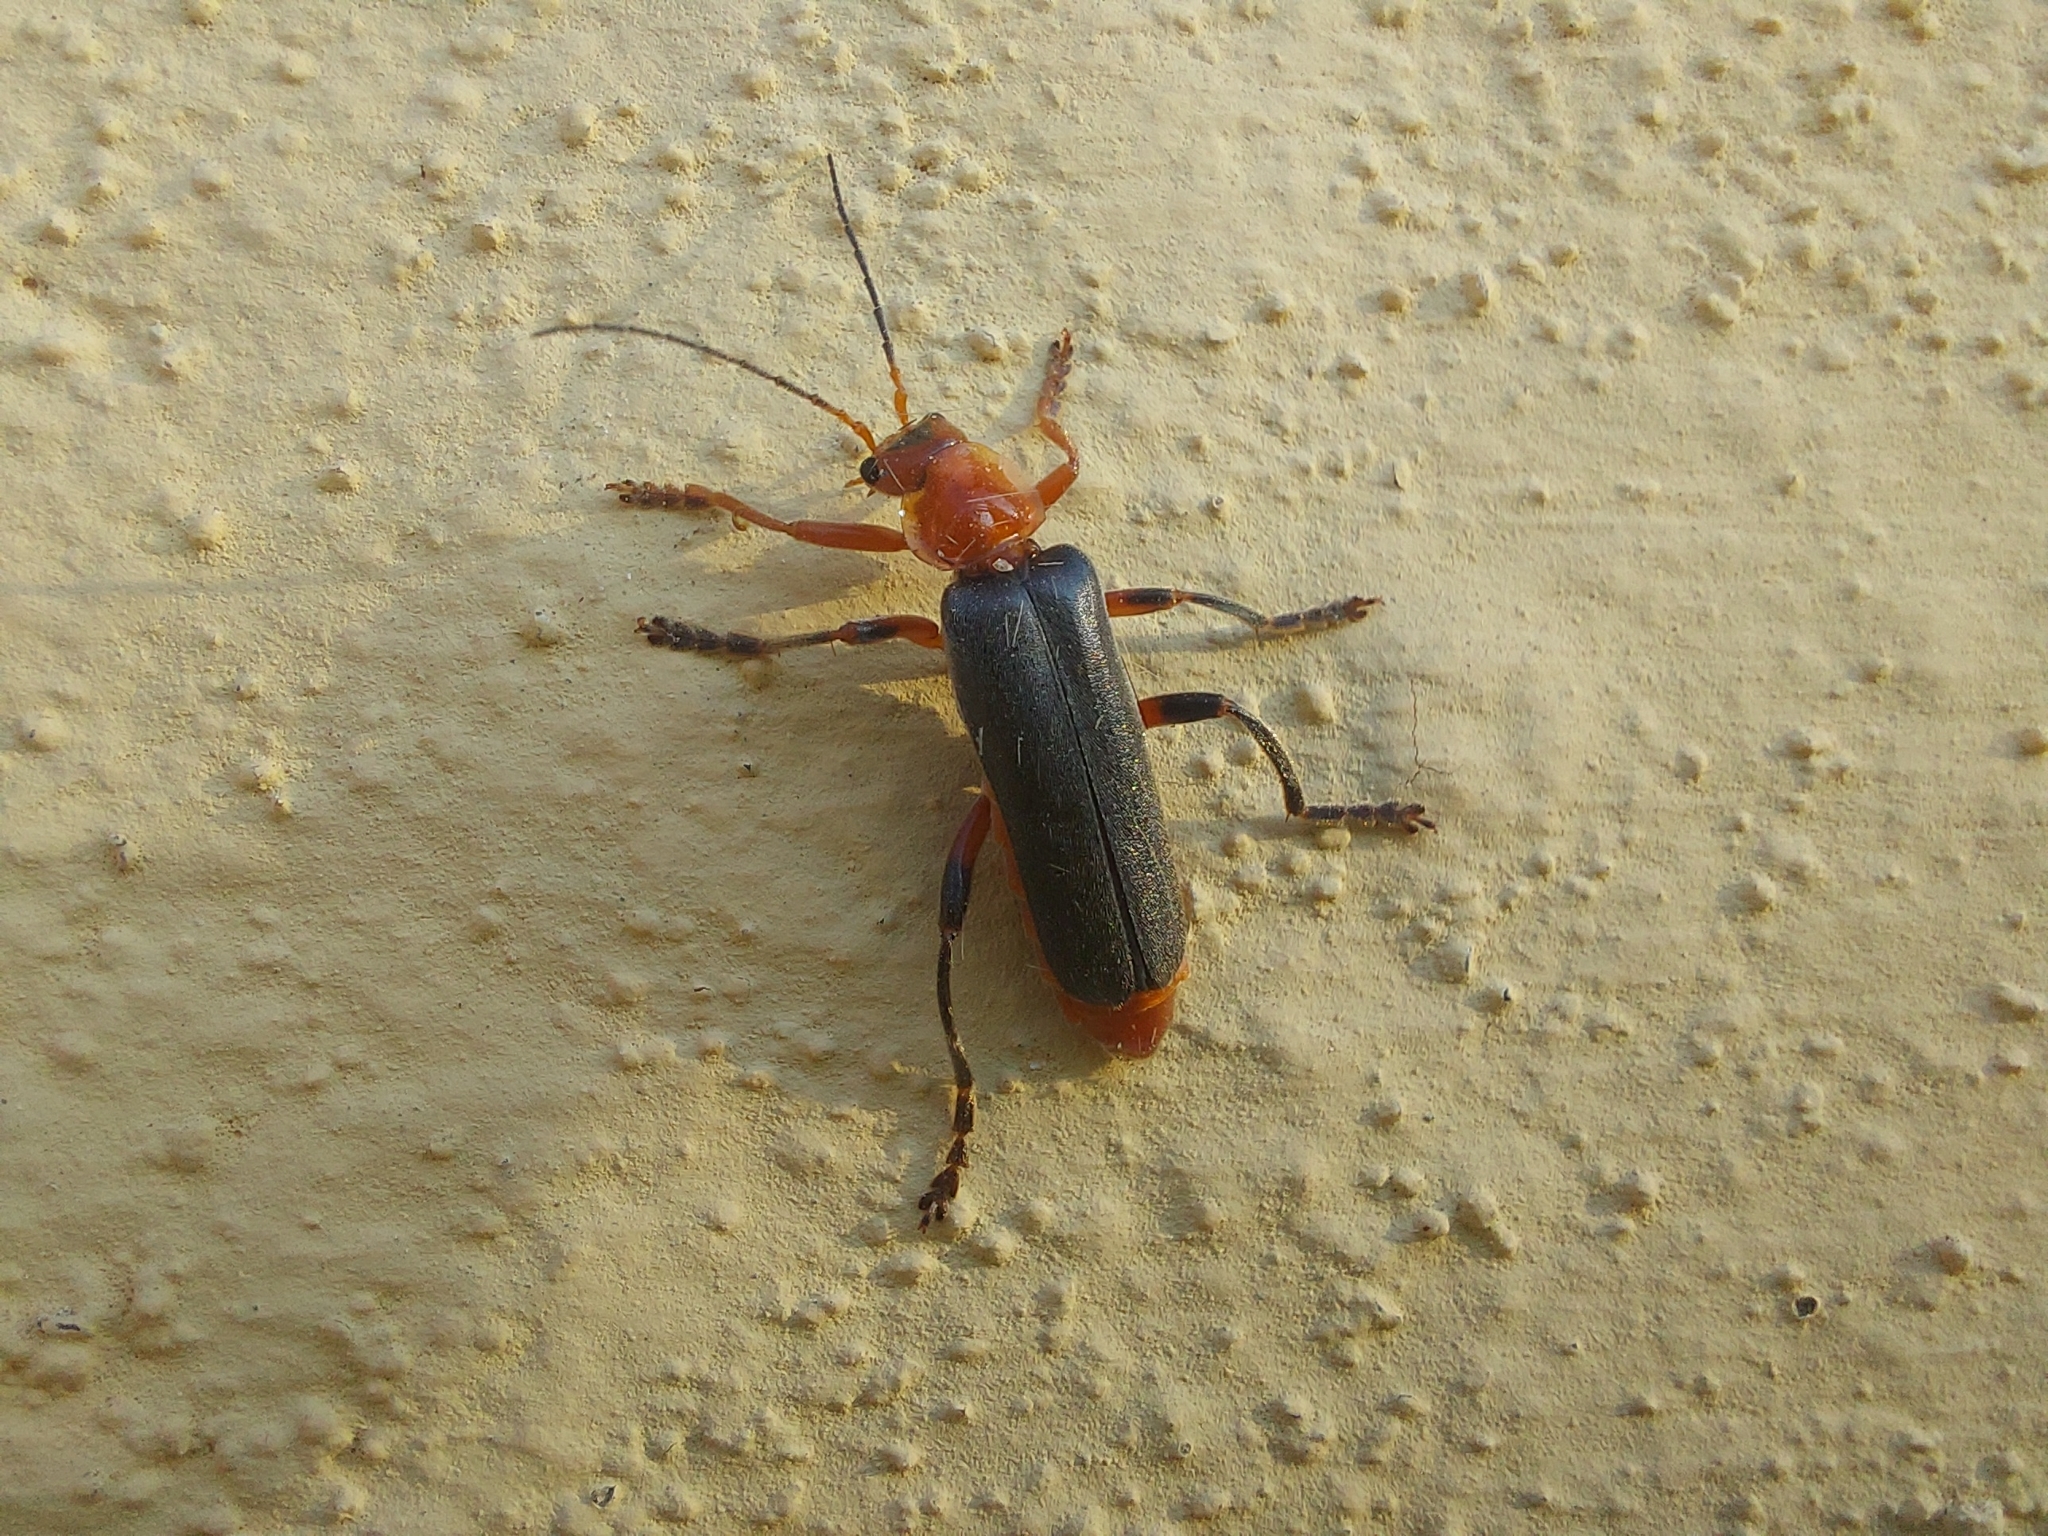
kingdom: Animalia
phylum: Arthropoda
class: Insecta
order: Coleoptera
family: Cantharidae
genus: Cantharis
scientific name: Cantharis livida
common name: Livid soldier beetle
